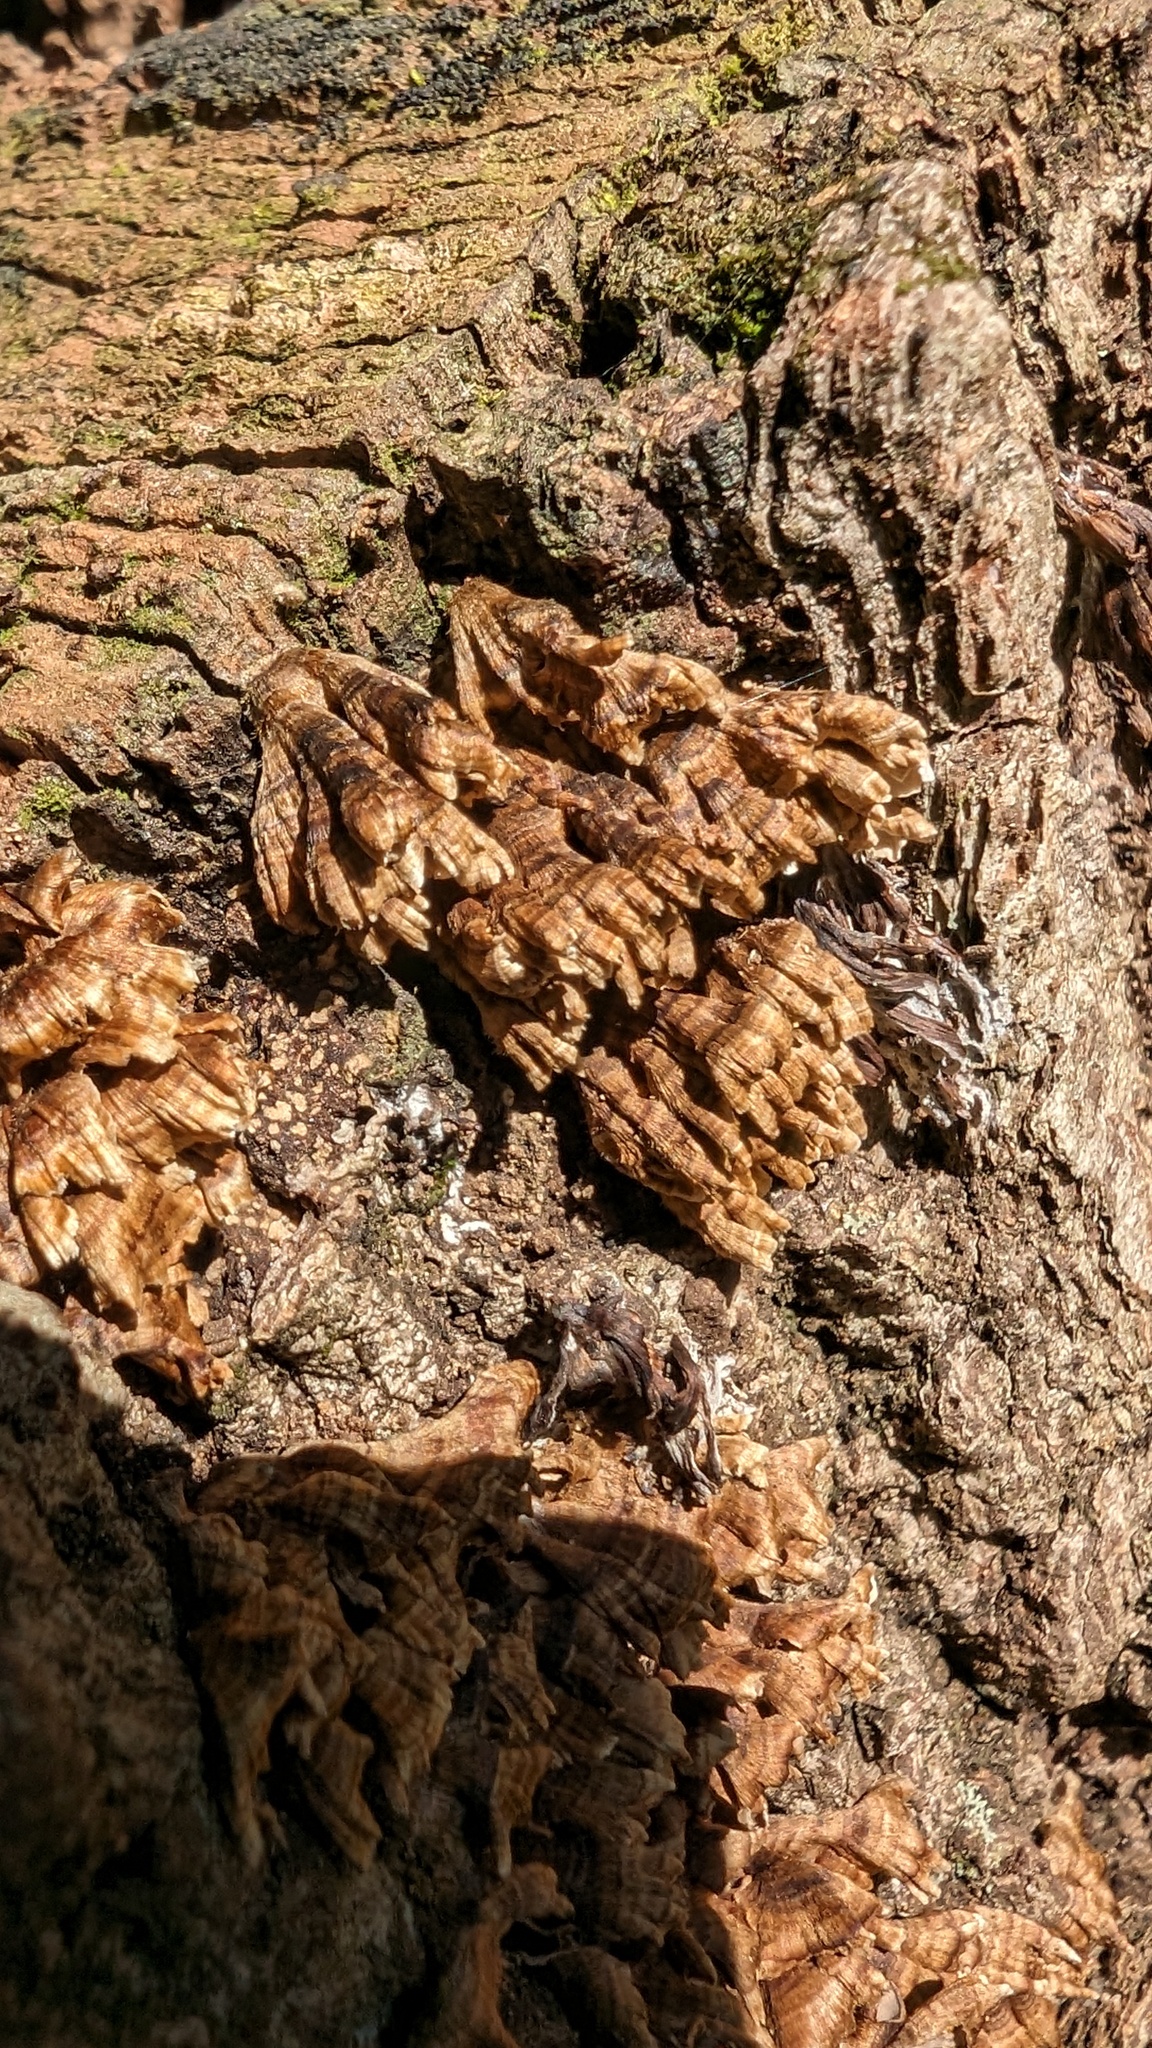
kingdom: Fungi
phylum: Basidiomycota
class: Agaricomycetes
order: Russulales
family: Stereaceae
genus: Xylobolus
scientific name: Xylobolus spectabilis
